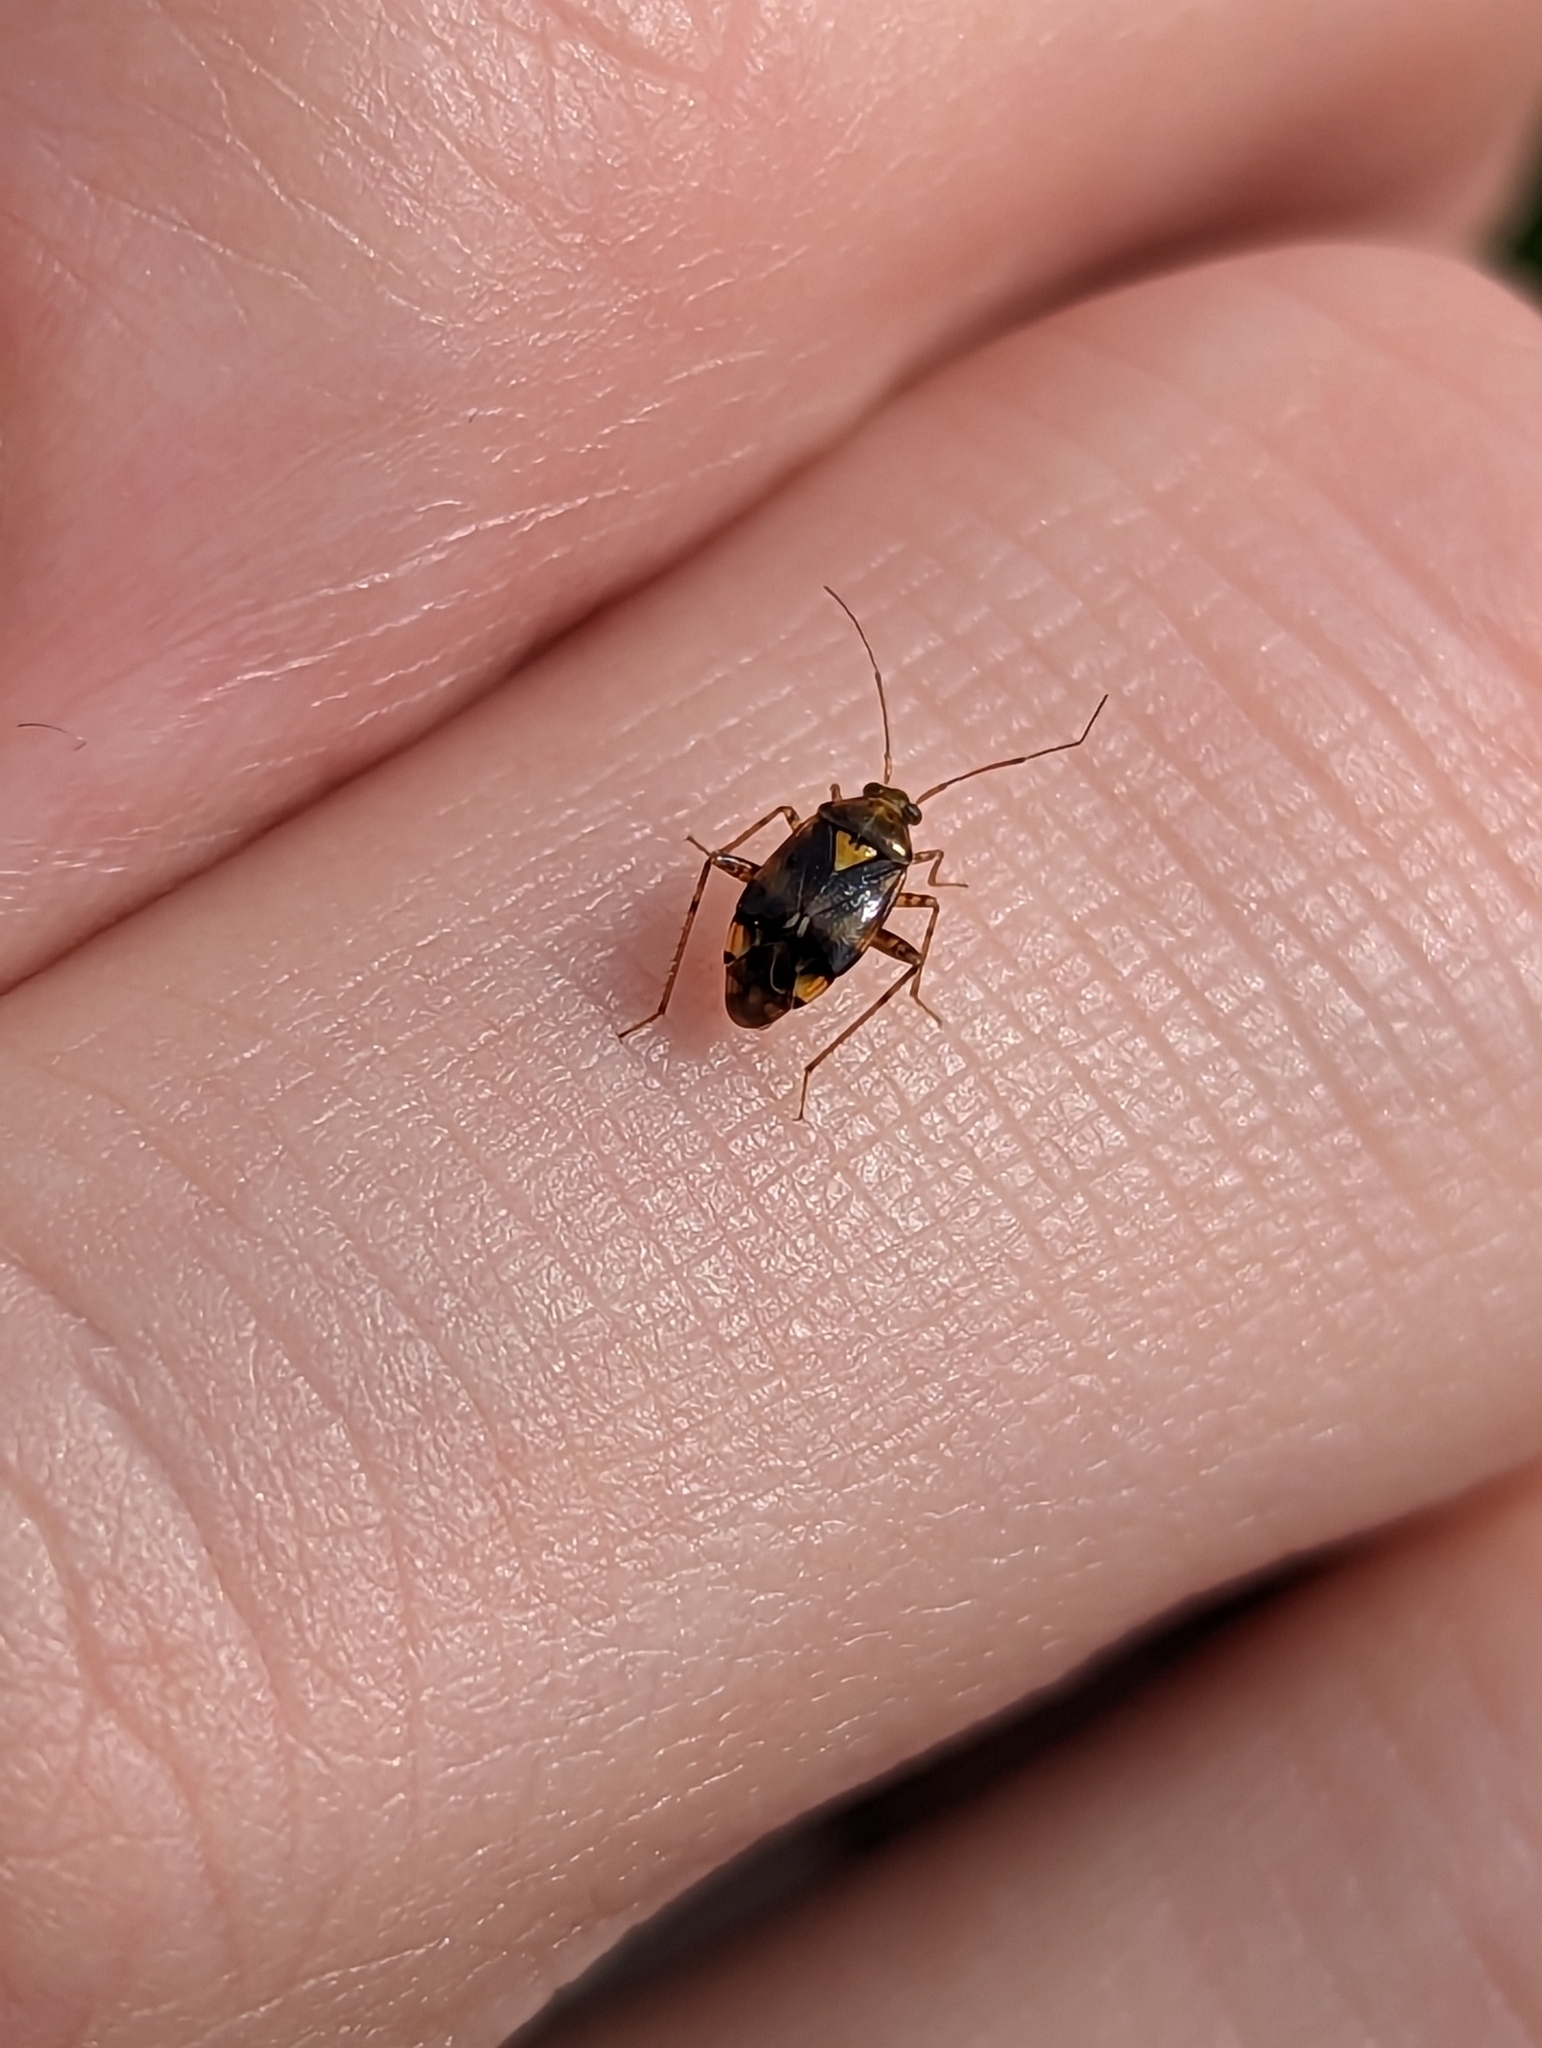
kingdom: Animalia
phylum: Arthropoda
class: Insecta
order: Hemiptera
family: Miridae
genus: Liocoris
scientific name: Liocoris tripustulatus
